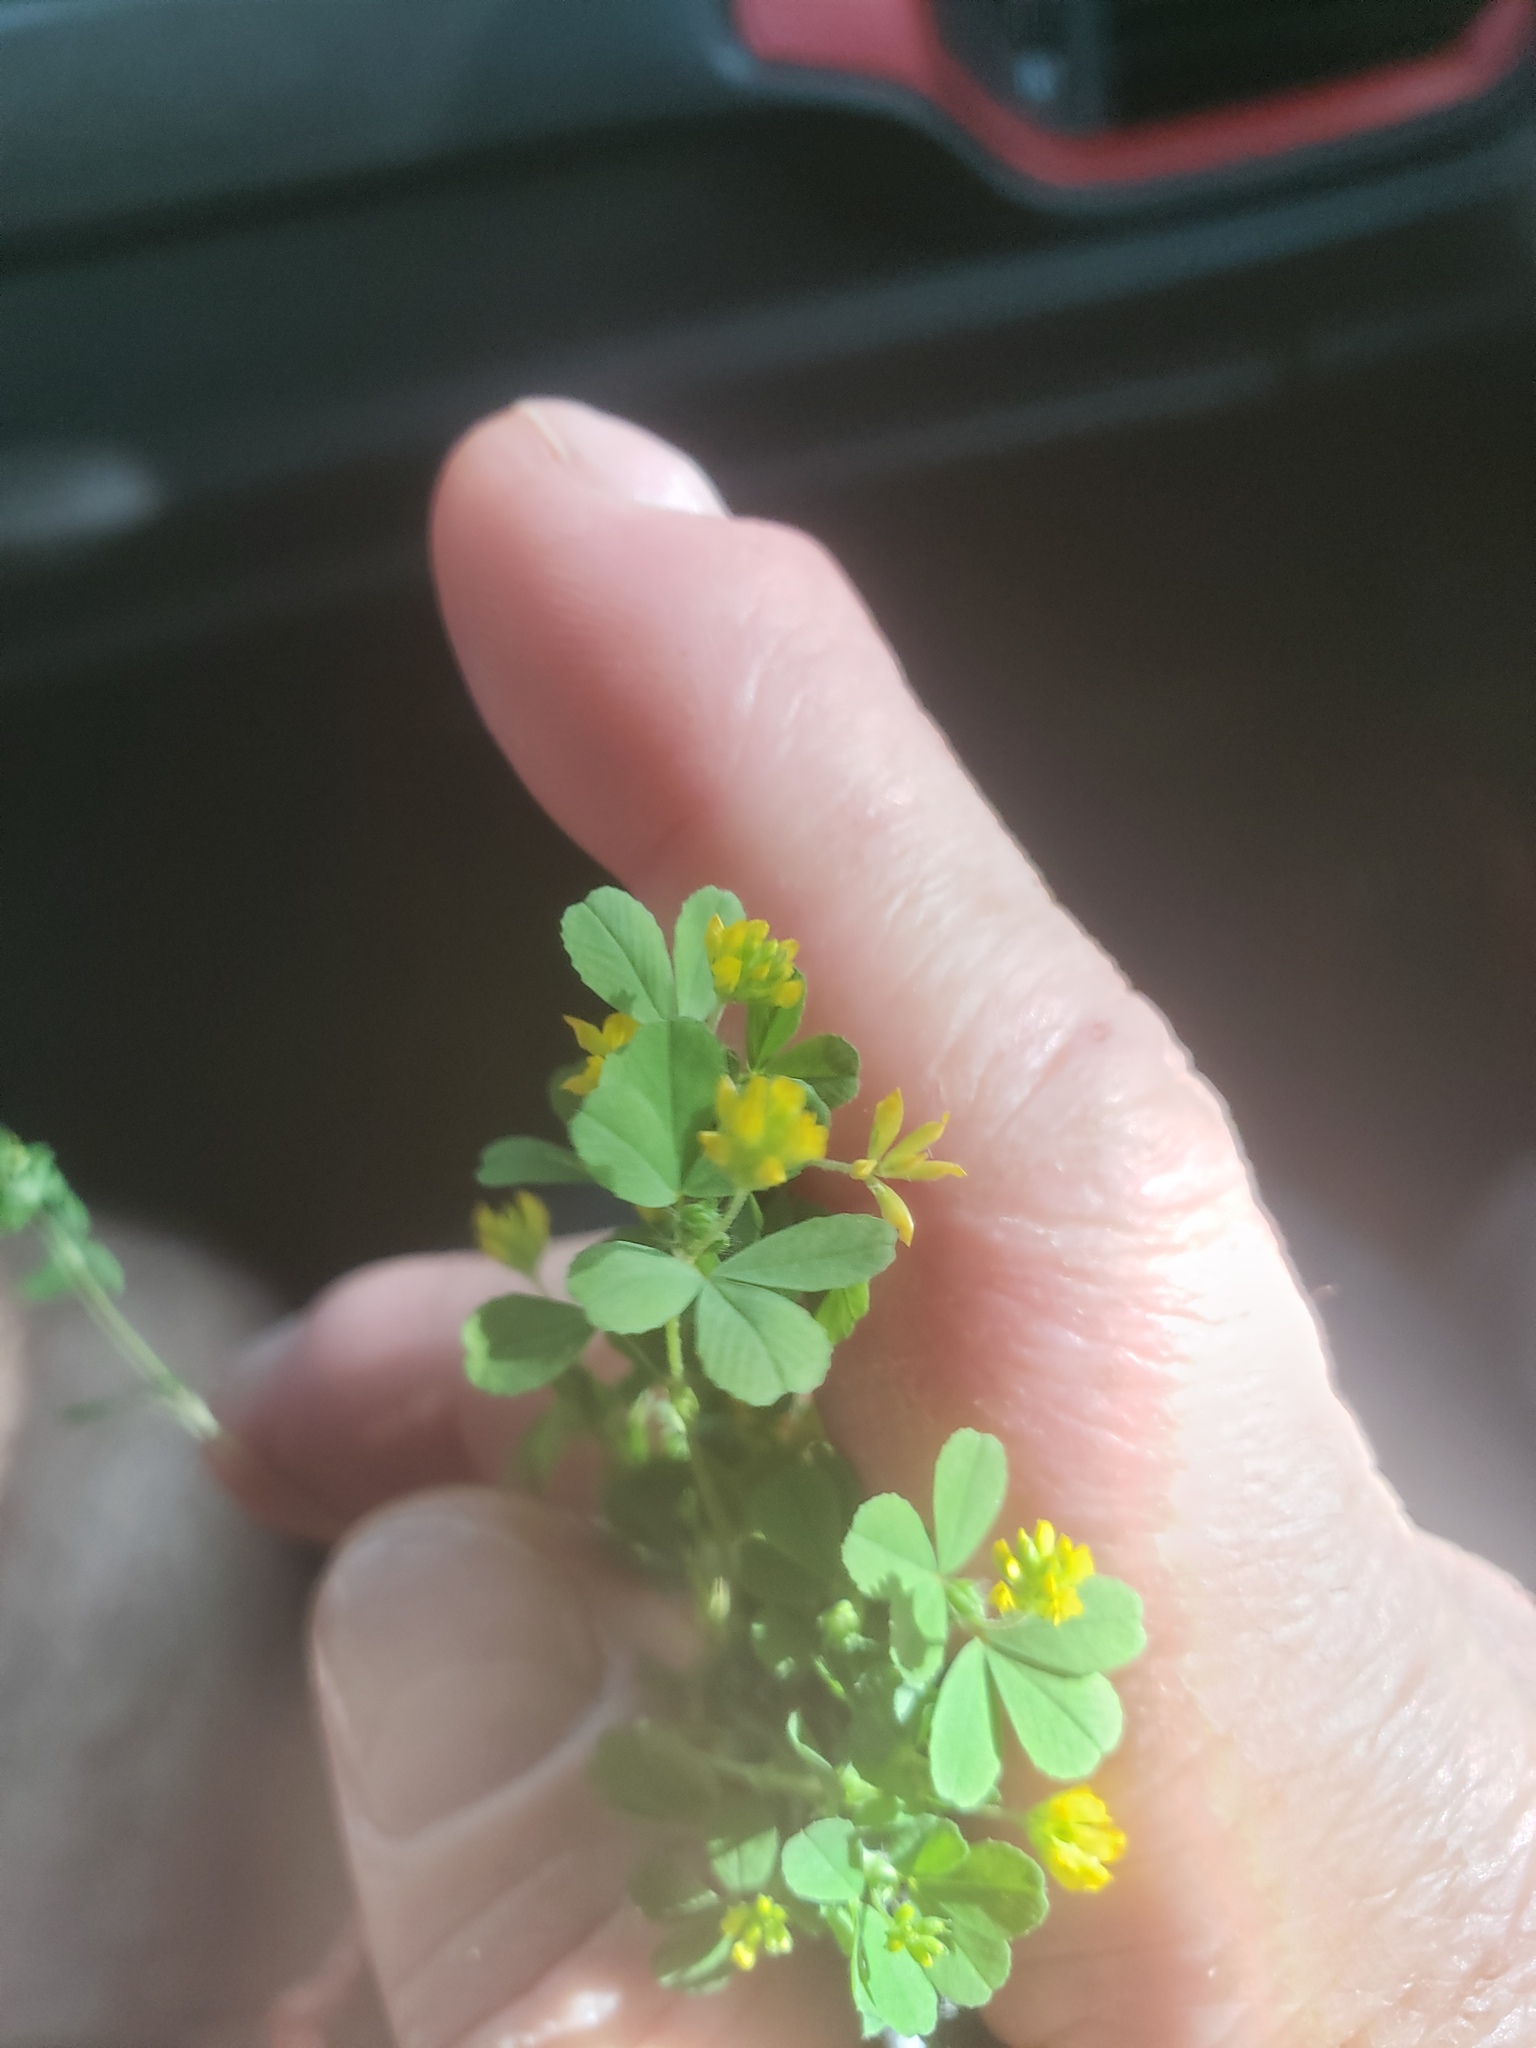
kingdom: Plantae
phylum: Tracheophyta
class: Magnoliopsida
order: Fabales
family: Fabaceae
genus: Trifolium
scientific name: Trifolium dubium
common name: Suckling clover
